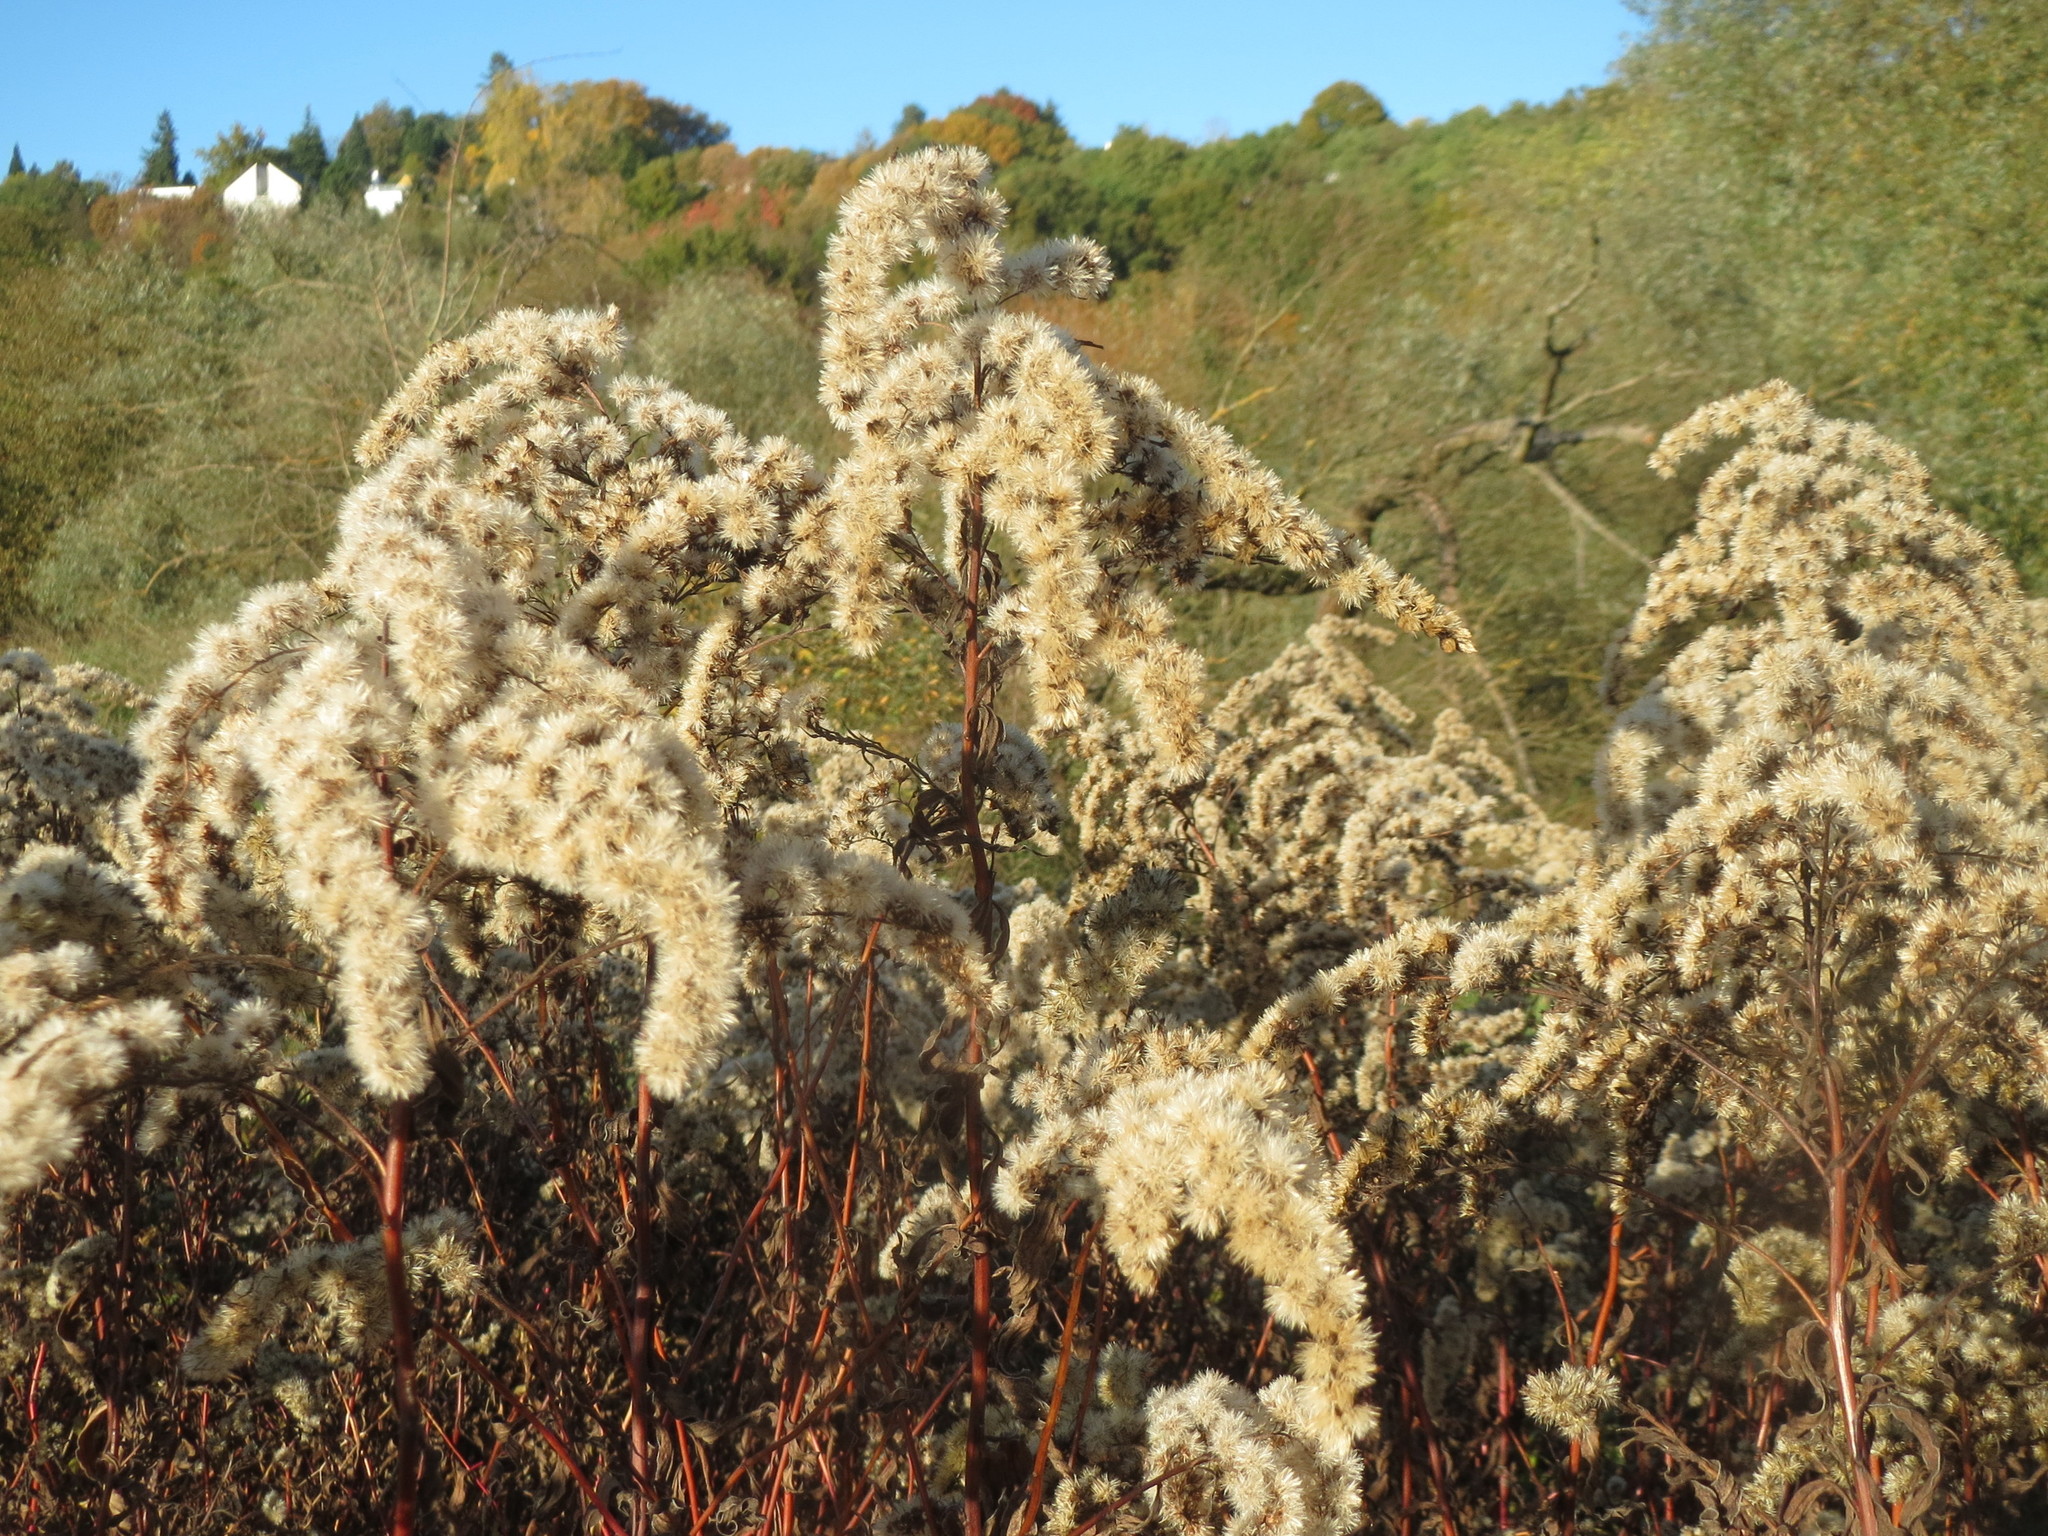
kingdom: Plantae
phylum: Tracheophyta
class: Magnoliopsida
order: Asterales
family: Asteraceae
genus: Solidago
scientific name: Solidago
